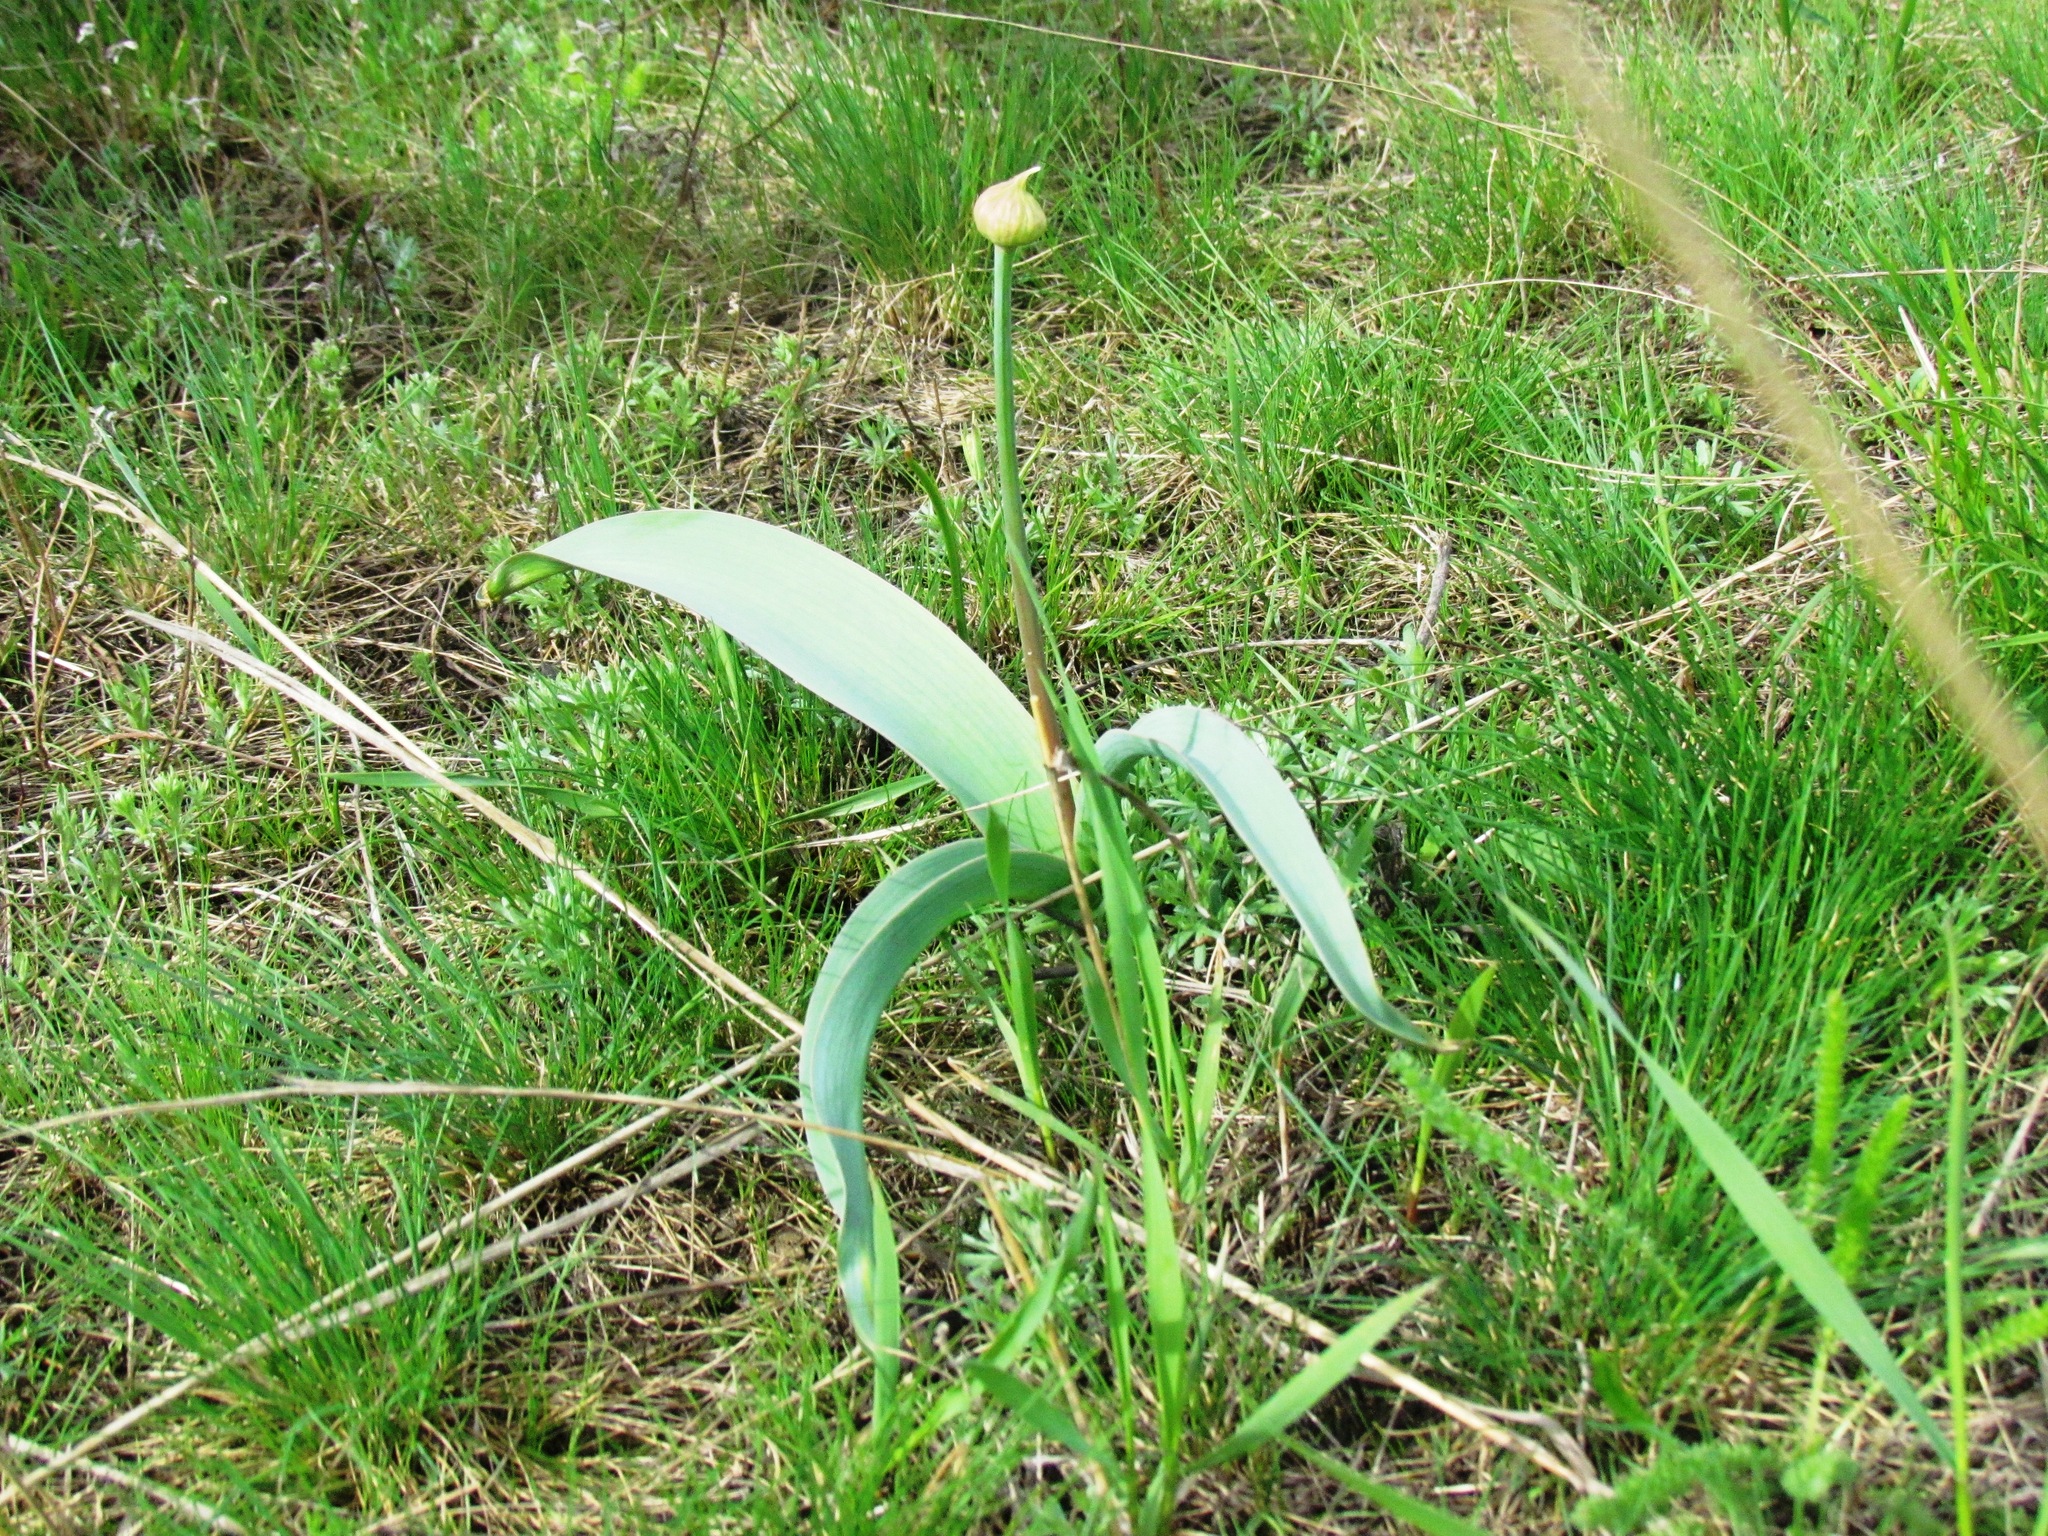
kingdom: Plantae
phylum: Tracheophyta
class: Liliopsida
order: Asparagales
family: Amaryllidaceae
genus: Allium
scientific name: Allium tulipifolium
